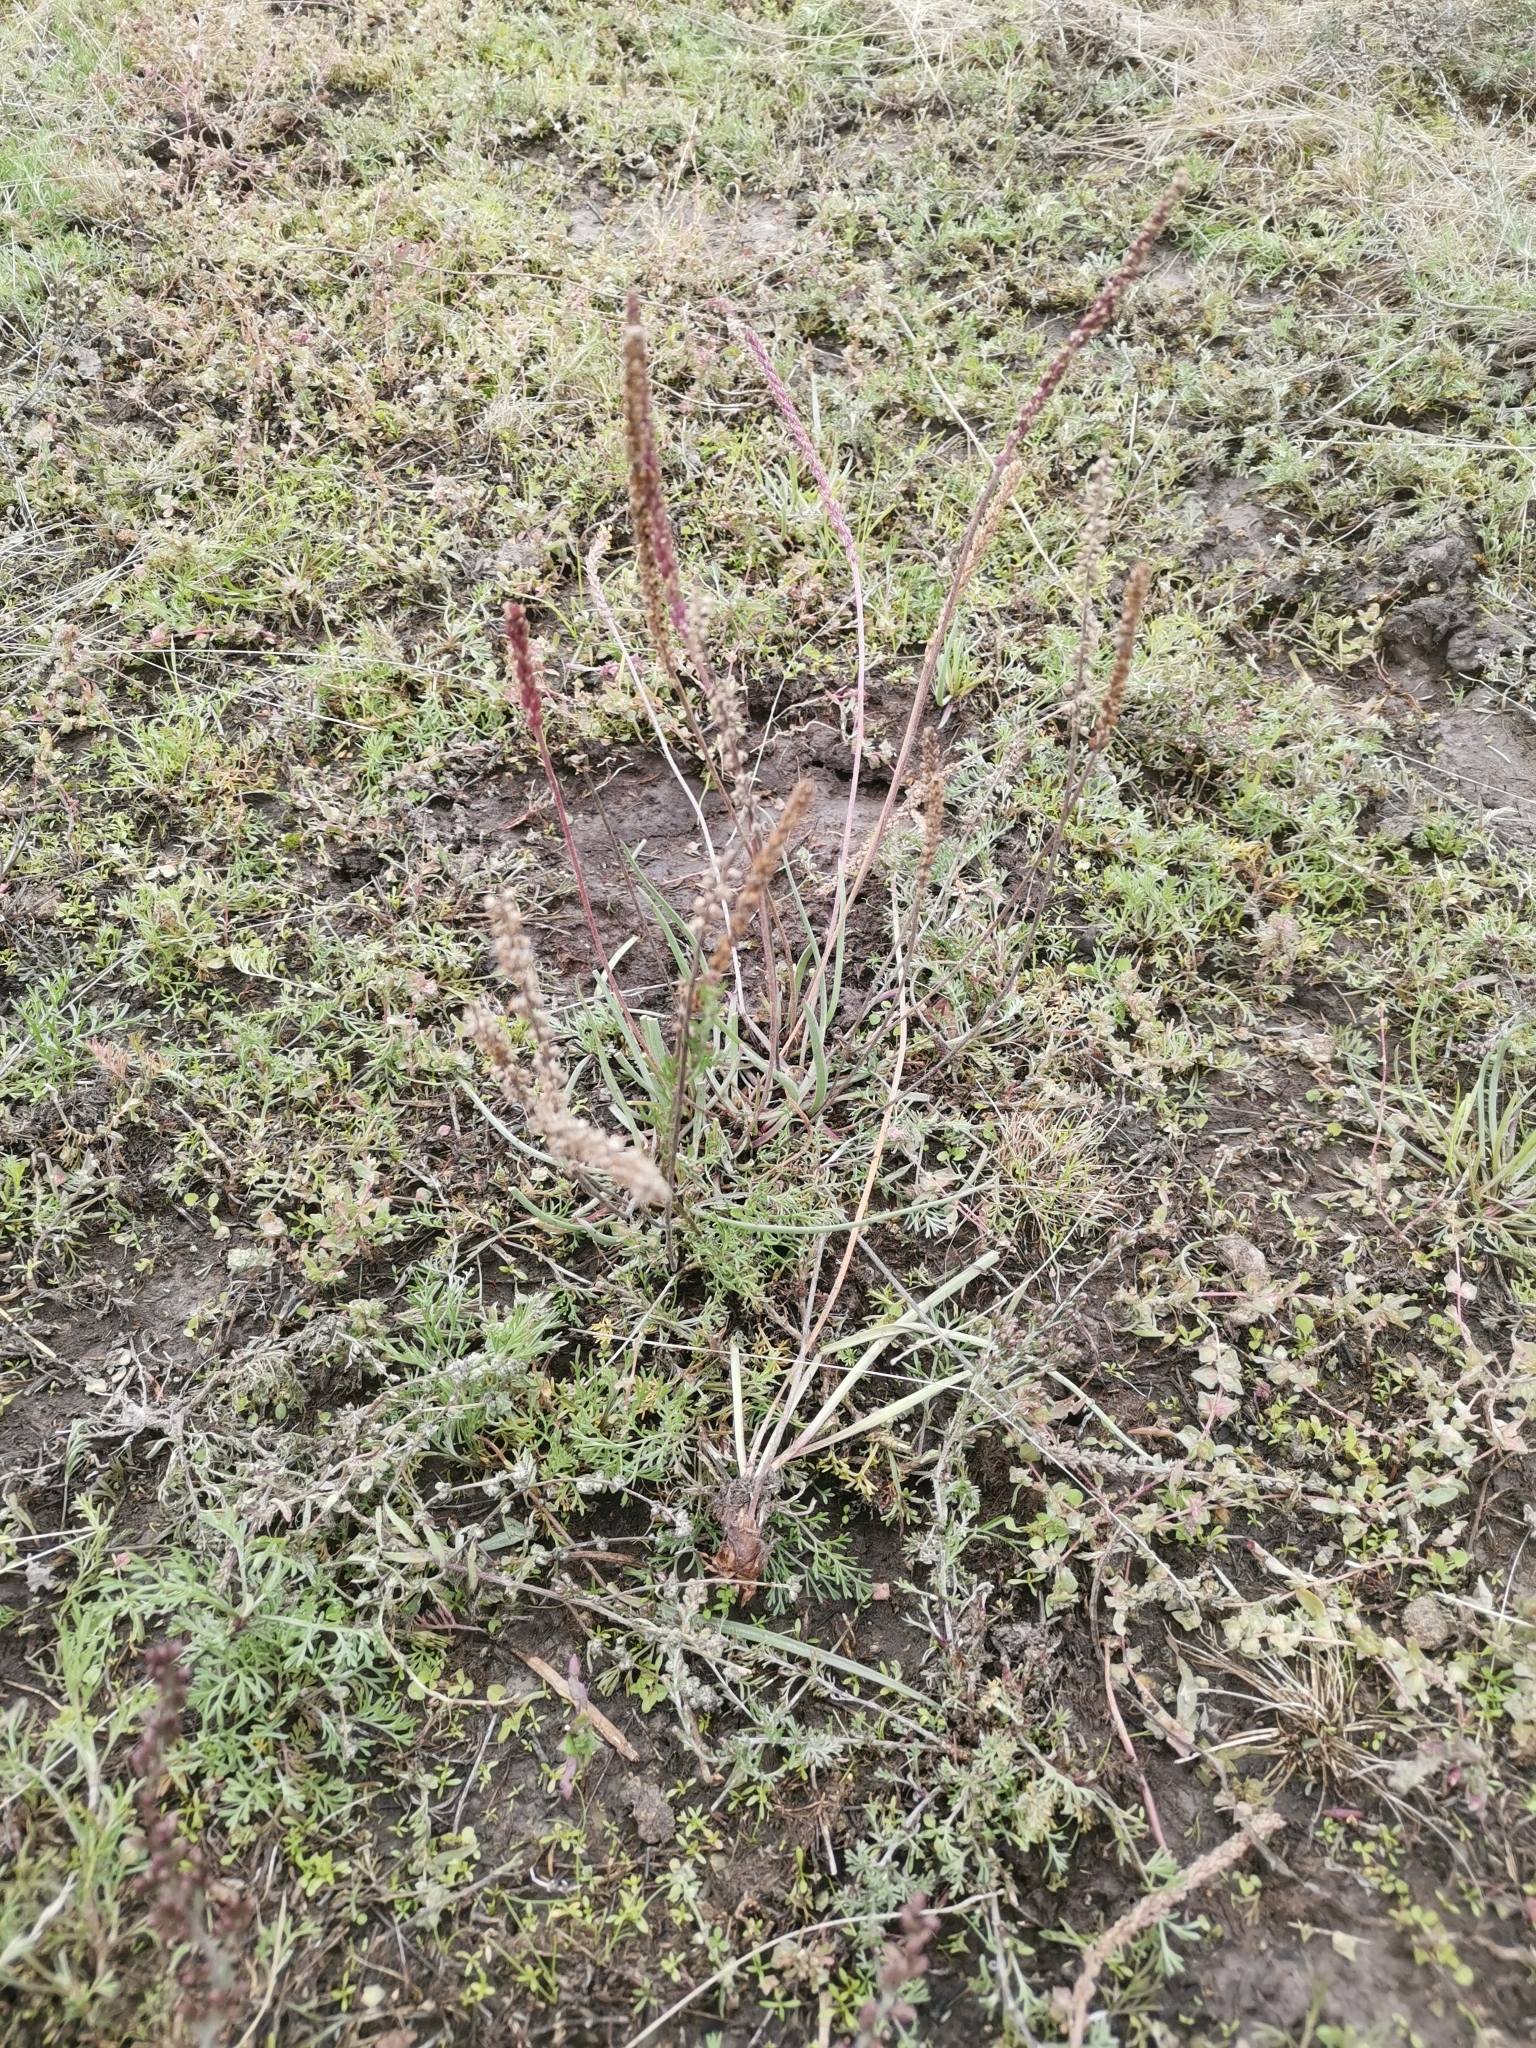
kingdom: Plantae
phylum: Tracheophyta
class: Magnoliopsida
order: Lamiales
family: Plantaginaceae
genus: Plantago
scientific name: Plantago maritima
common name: Sea plantain
